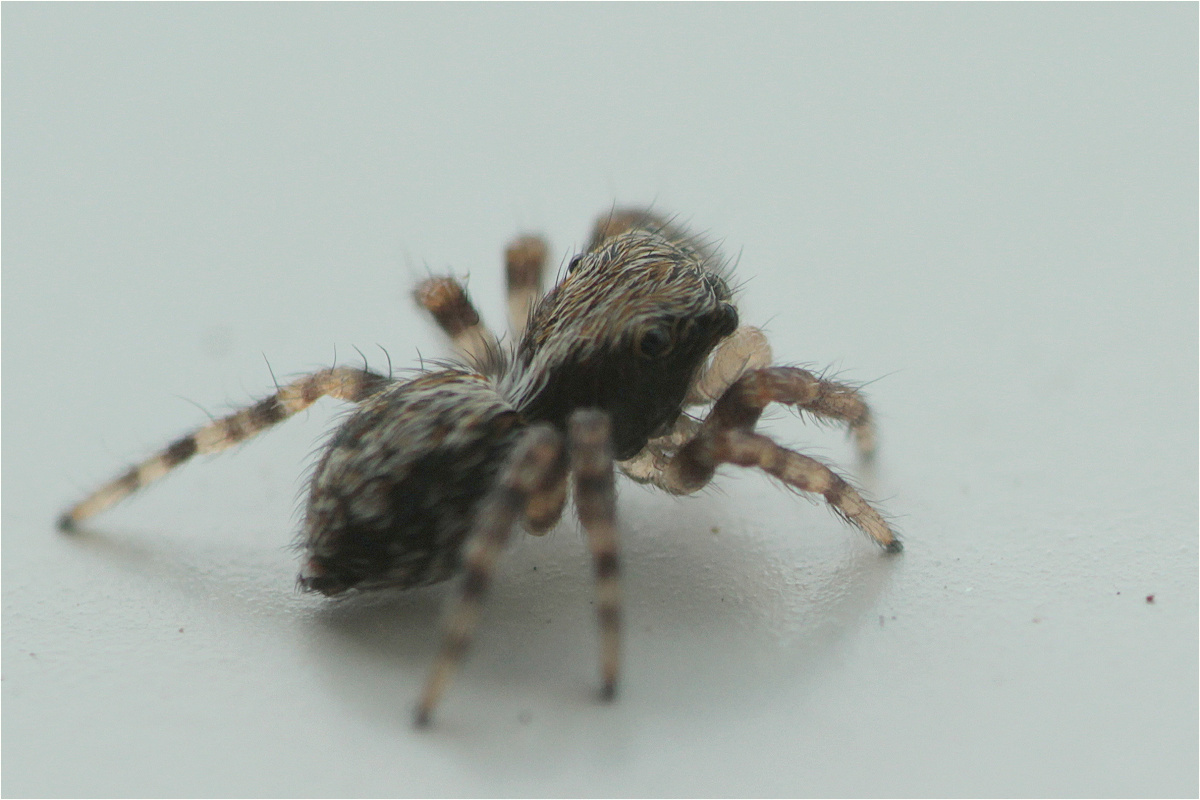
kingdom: Animalia
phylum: Arthropoda
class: Arachnida
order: Araneae
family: Salticidae
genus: Pseudeuophrys
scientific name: Pseudeuophrys lanigera
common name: Jumping spider
